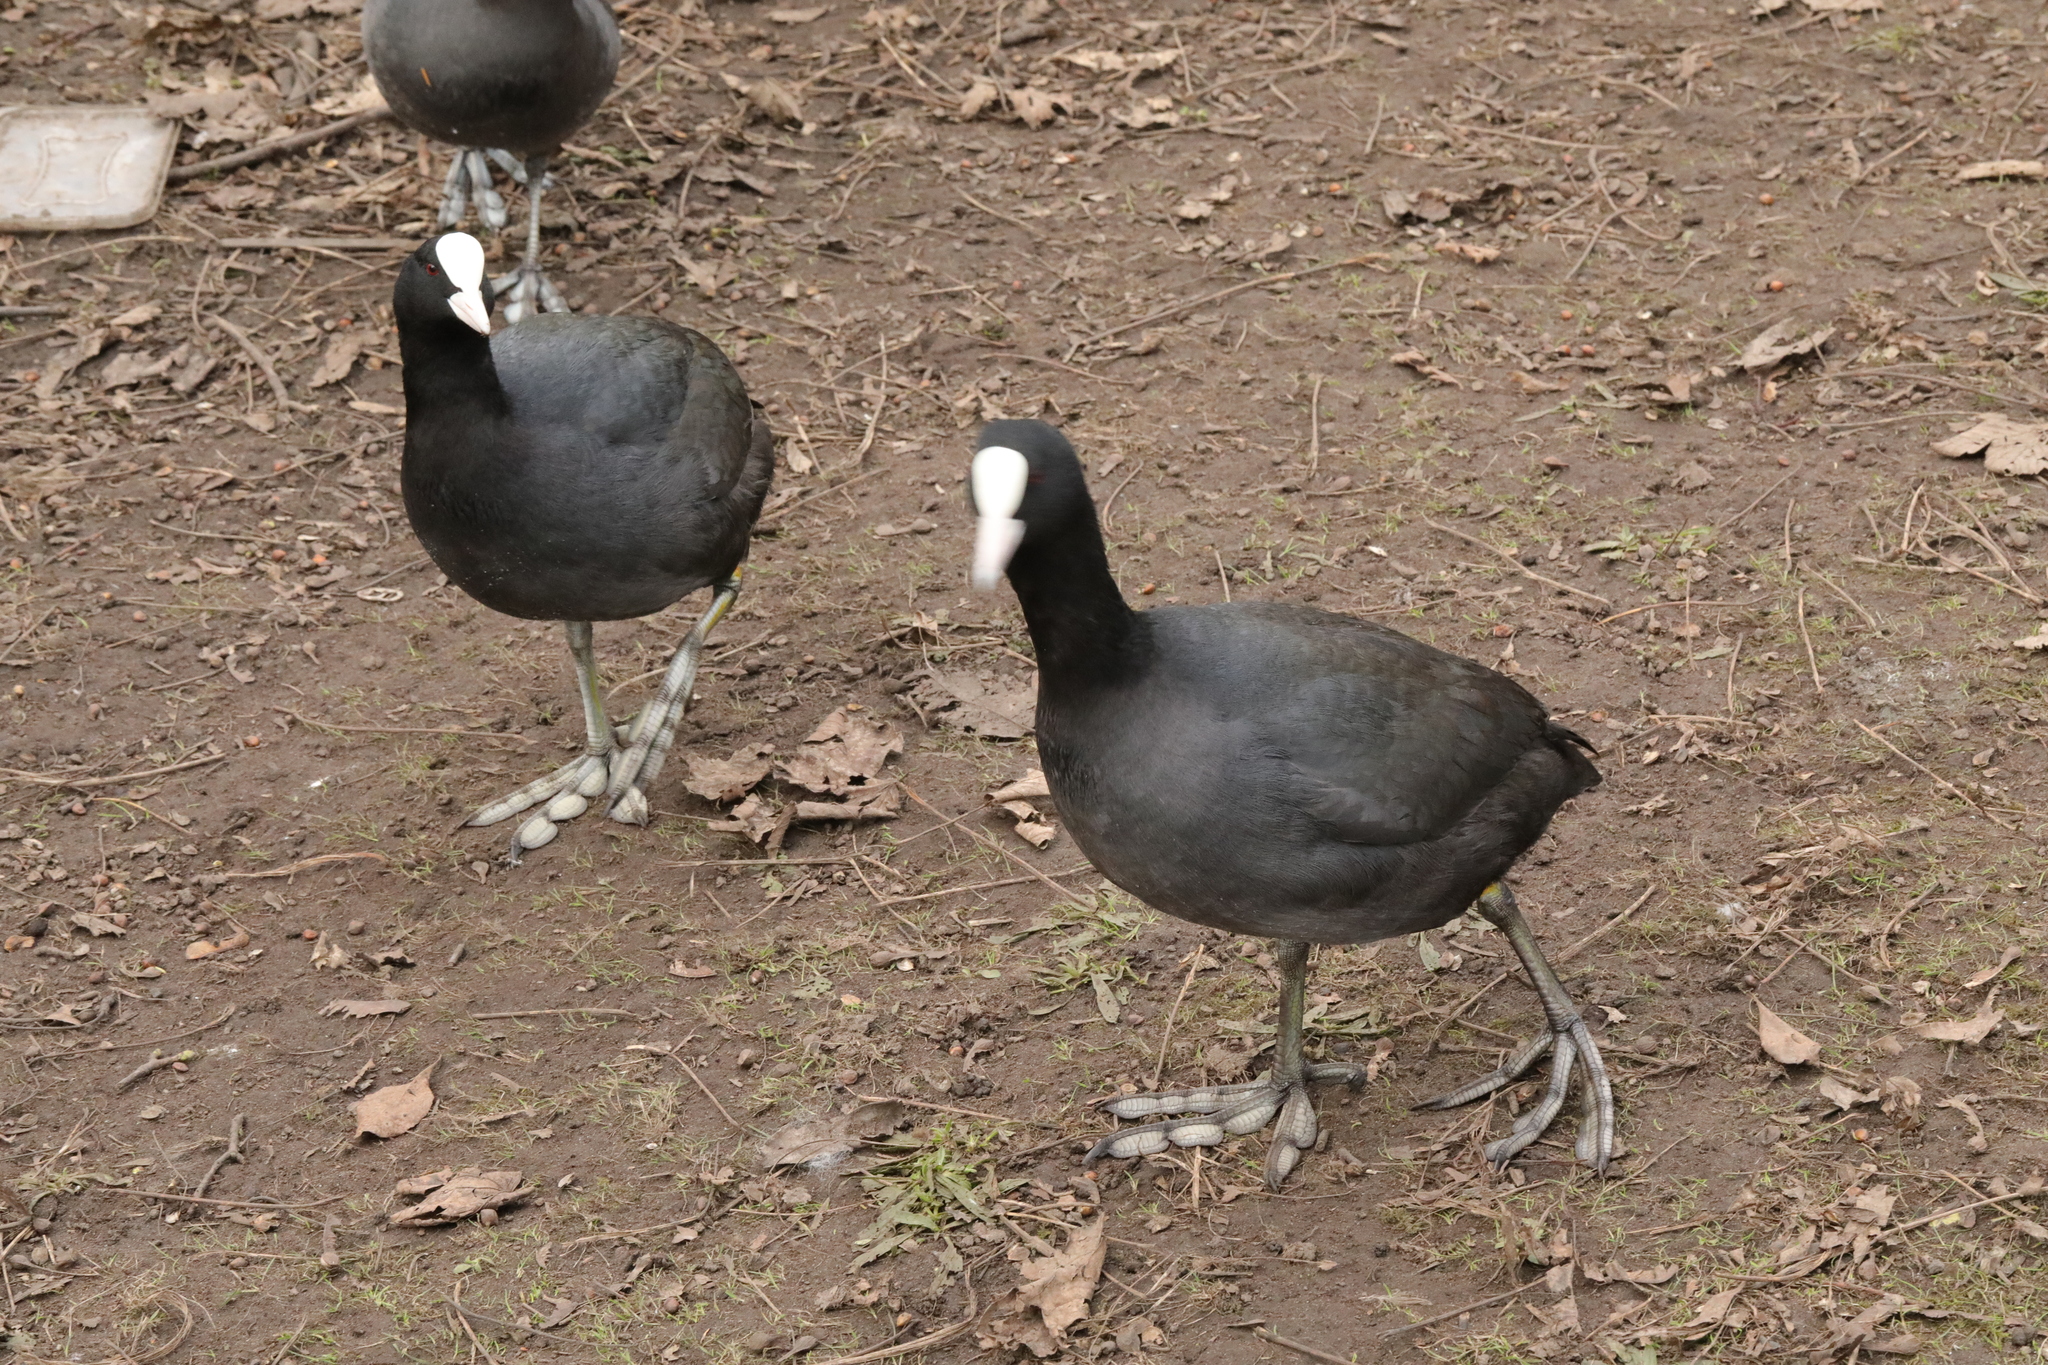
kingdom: Animalia
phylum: Chordata
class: Aves
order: Gruiformes
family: Rallidae
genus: Fulica
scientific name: Fulica atra
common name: Eurasian coot
